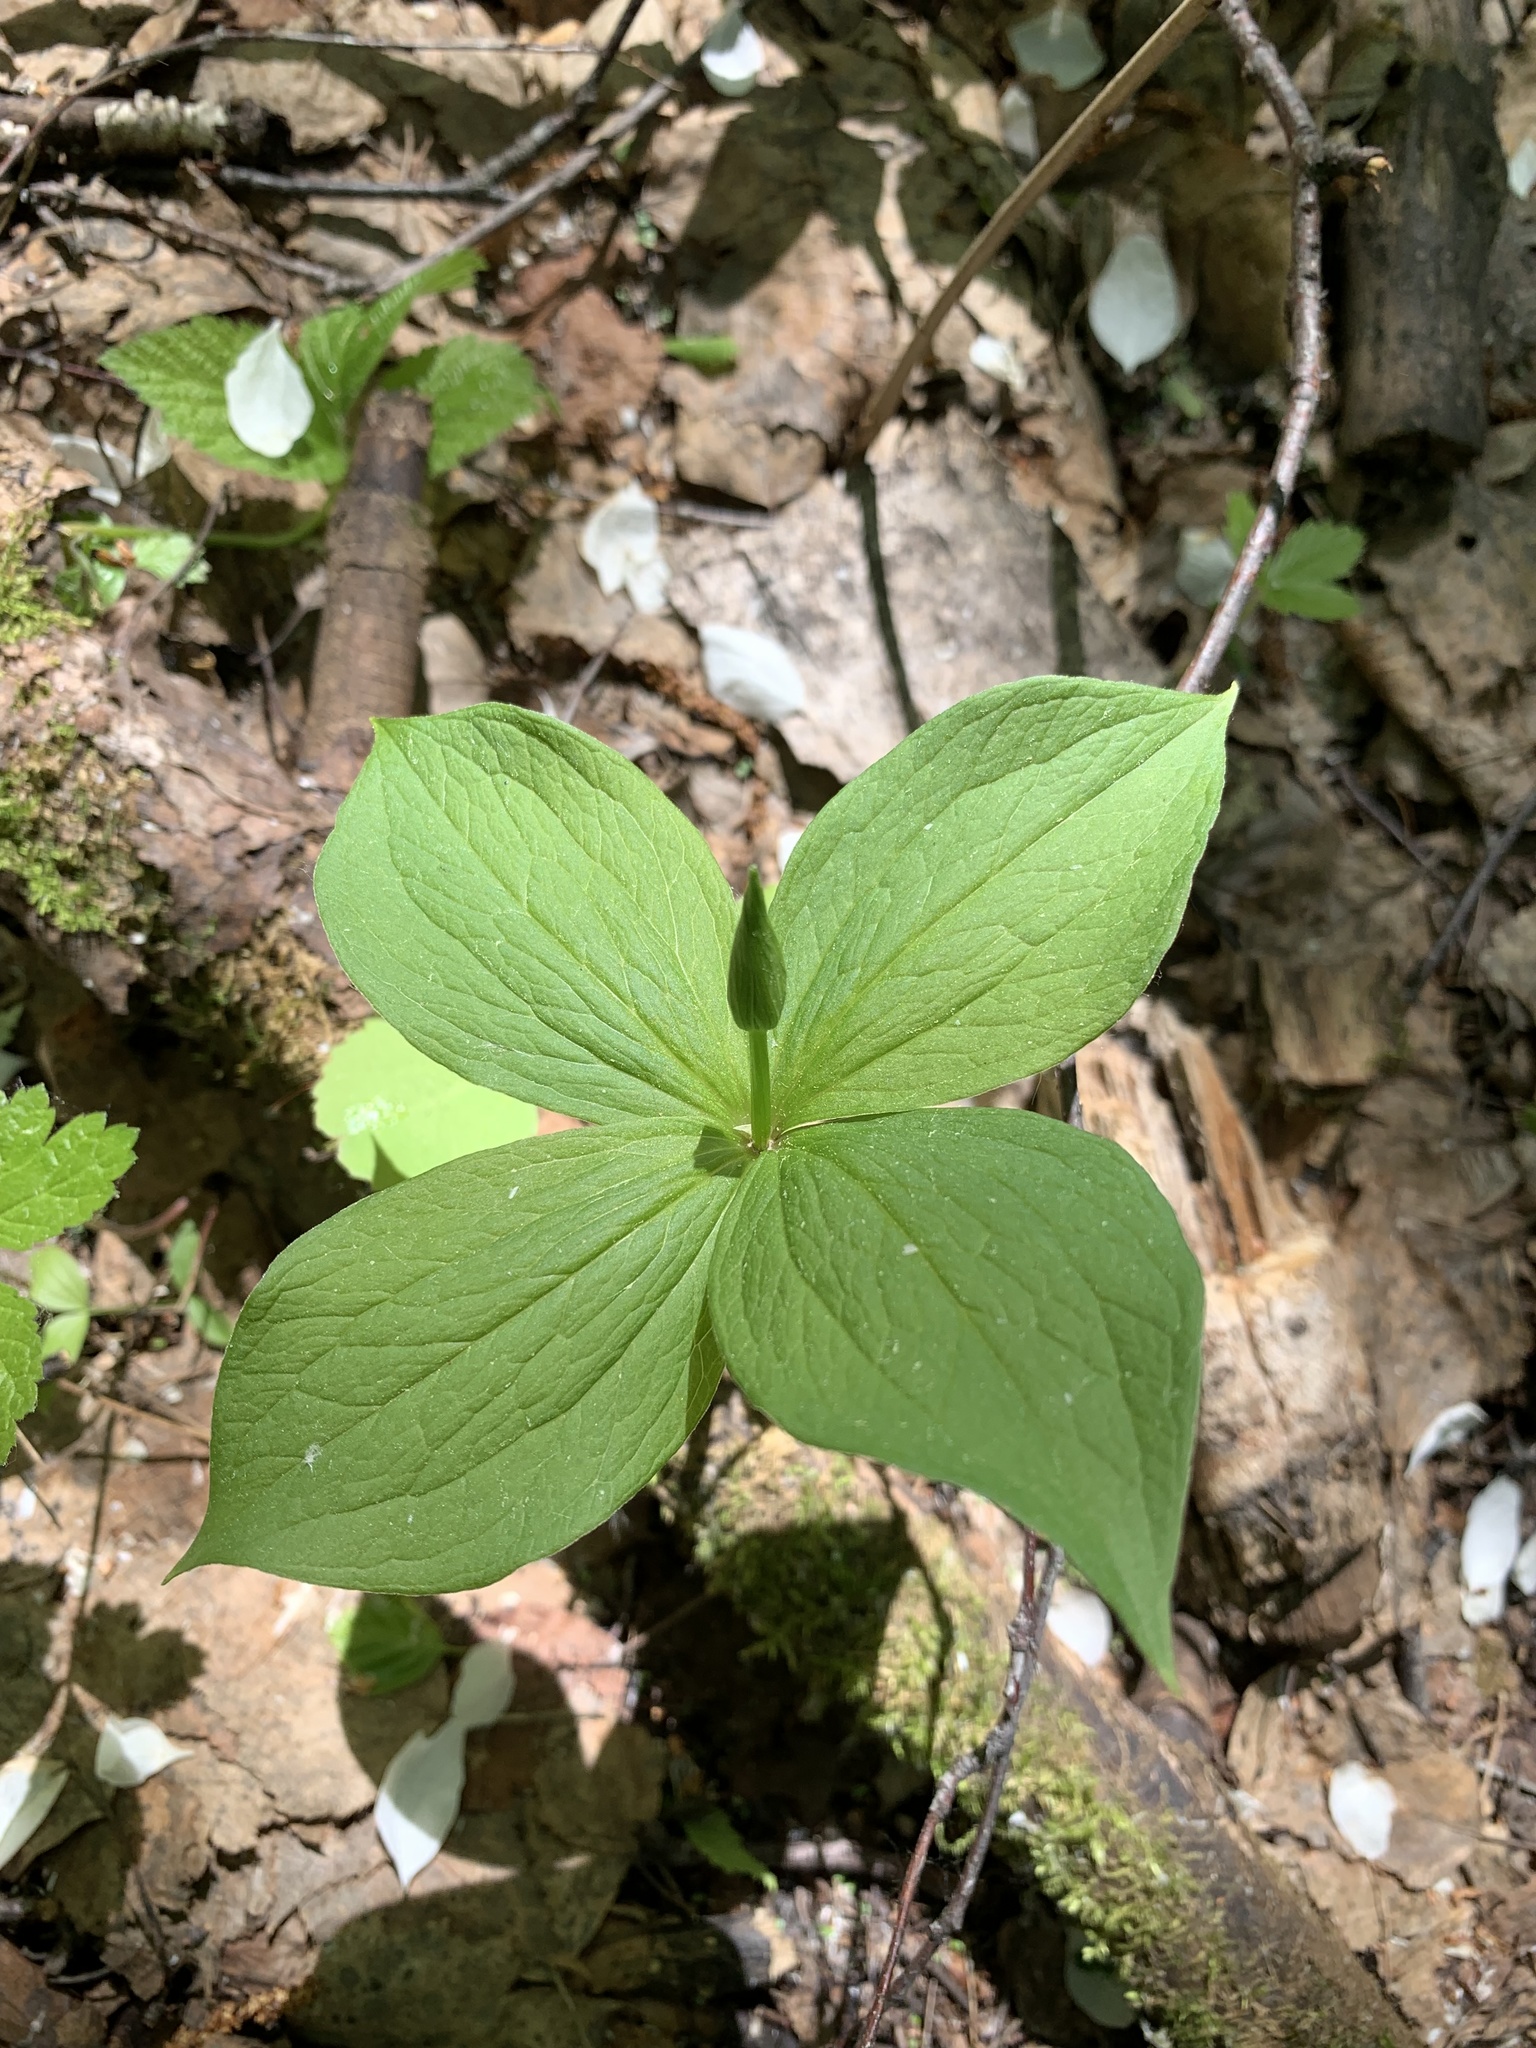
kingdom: Plantae
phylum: Tracheophyta
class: Liliopsida
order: Liliales
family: Melanthiaceae
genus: Paris
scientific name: Paris quadrifolia
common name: Herb-paris
